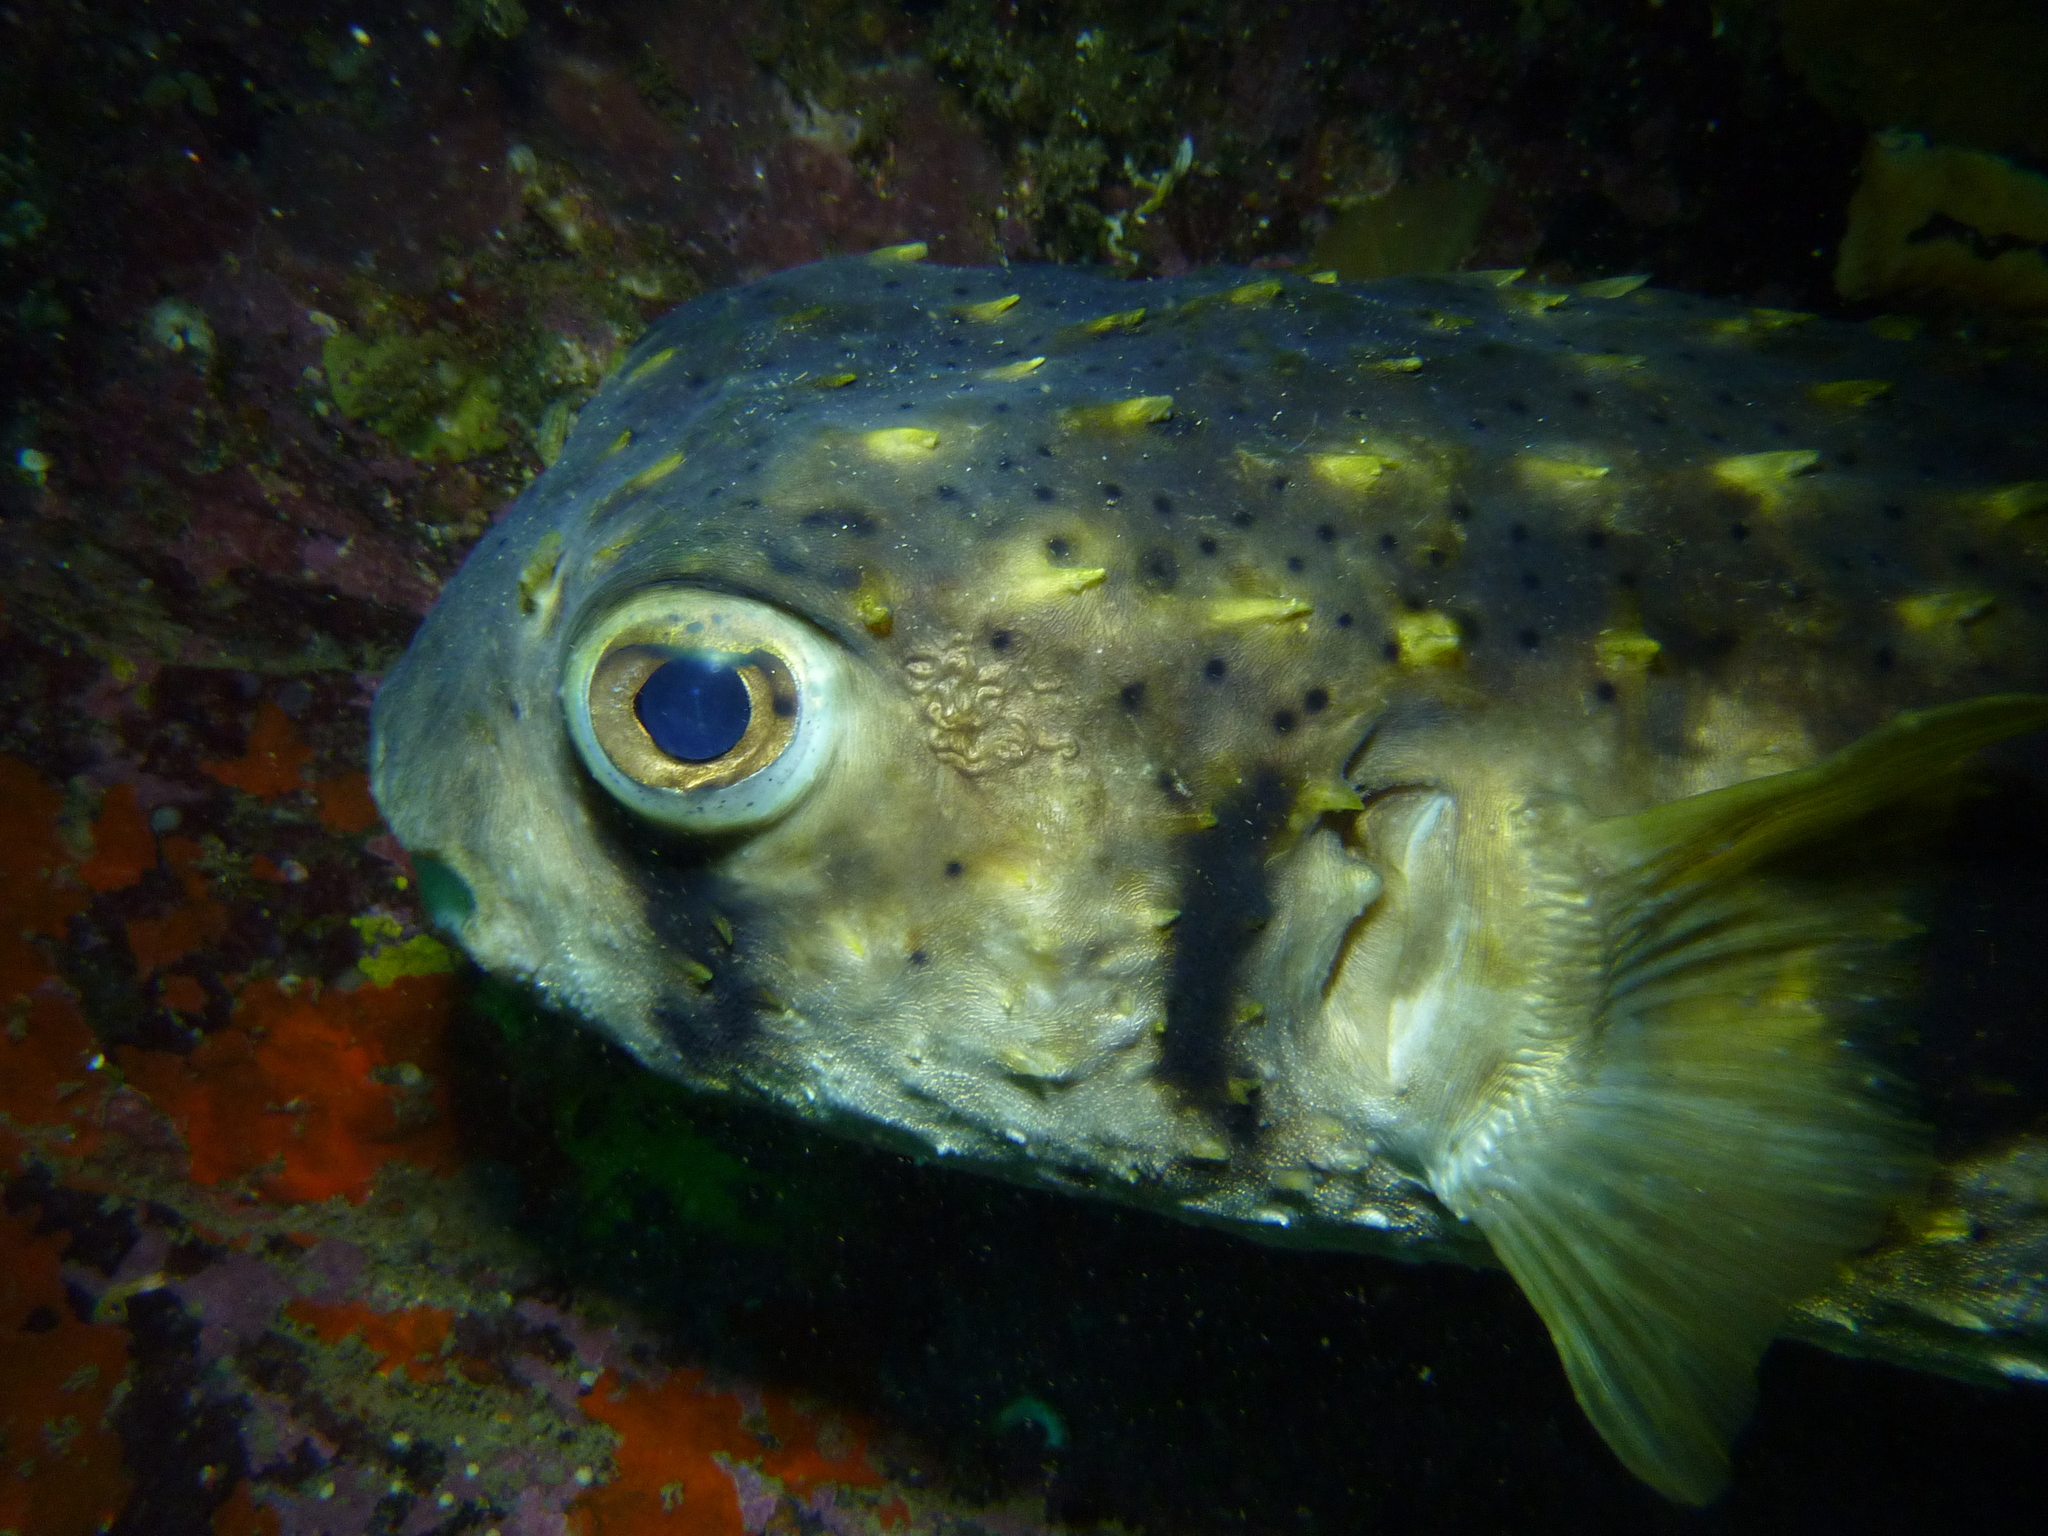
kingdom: Animalia
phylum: Chordata
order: Tetraodontiformes
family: Diodontidae
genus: Dicotylichthys
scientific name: Dicotylichthys punctulatus
